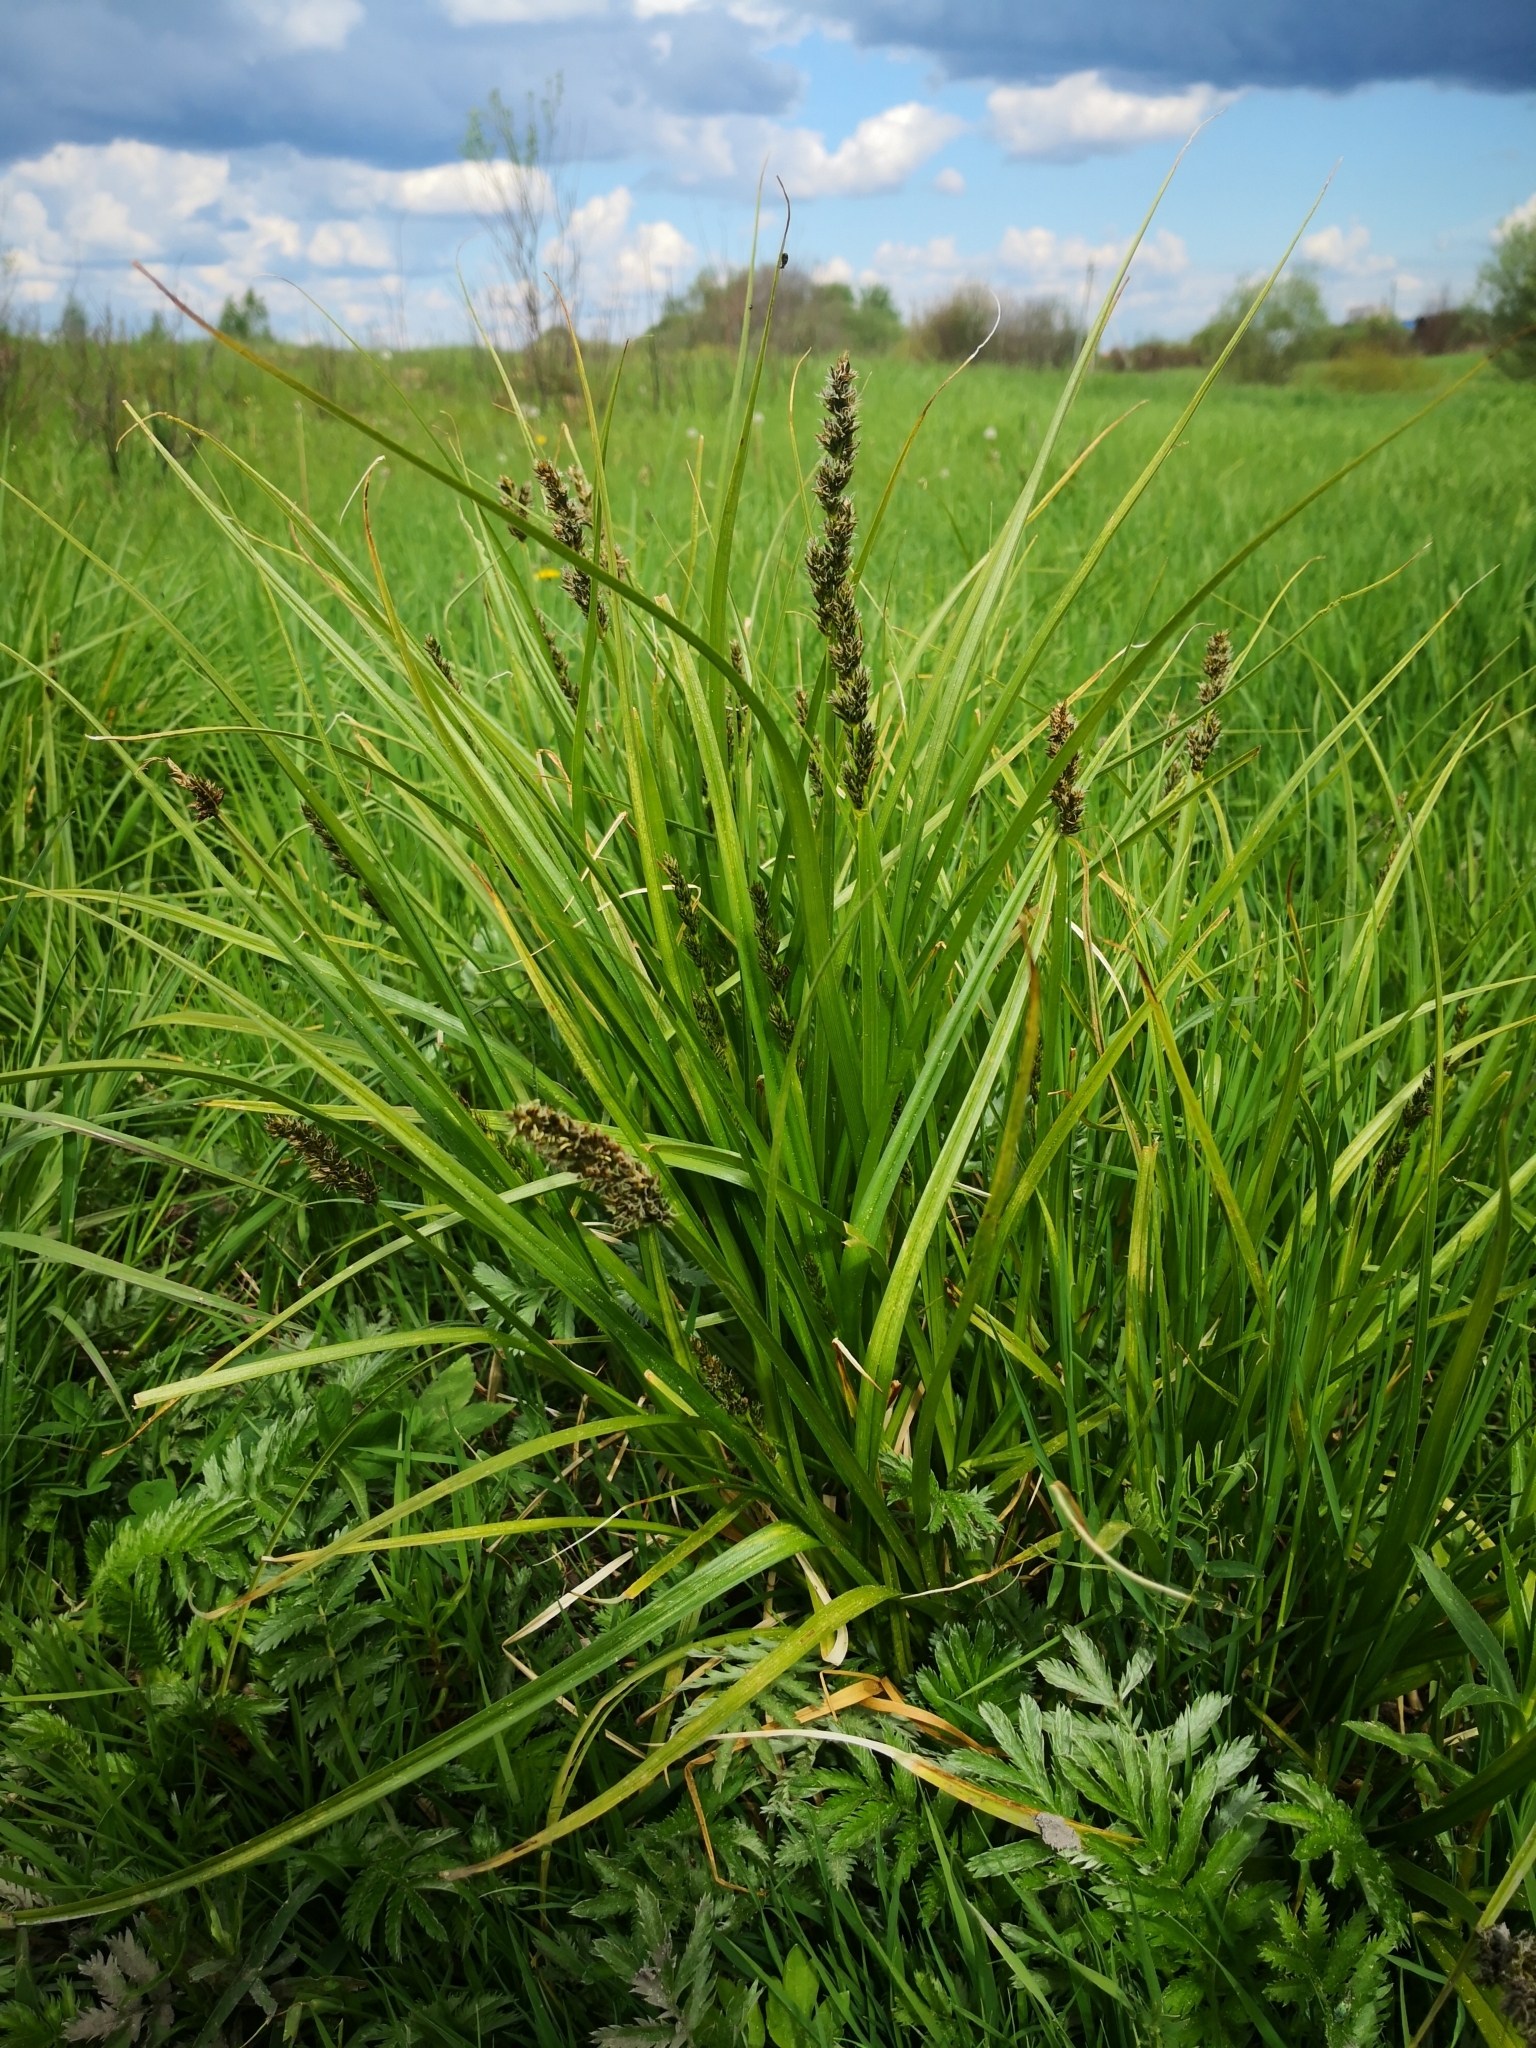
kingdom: Plantae
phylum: Tracheophyta
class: Liliopsida
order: Poales
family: Cyperaceae
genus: Carex
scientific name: Carex vulpina
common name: True fox-sedge
